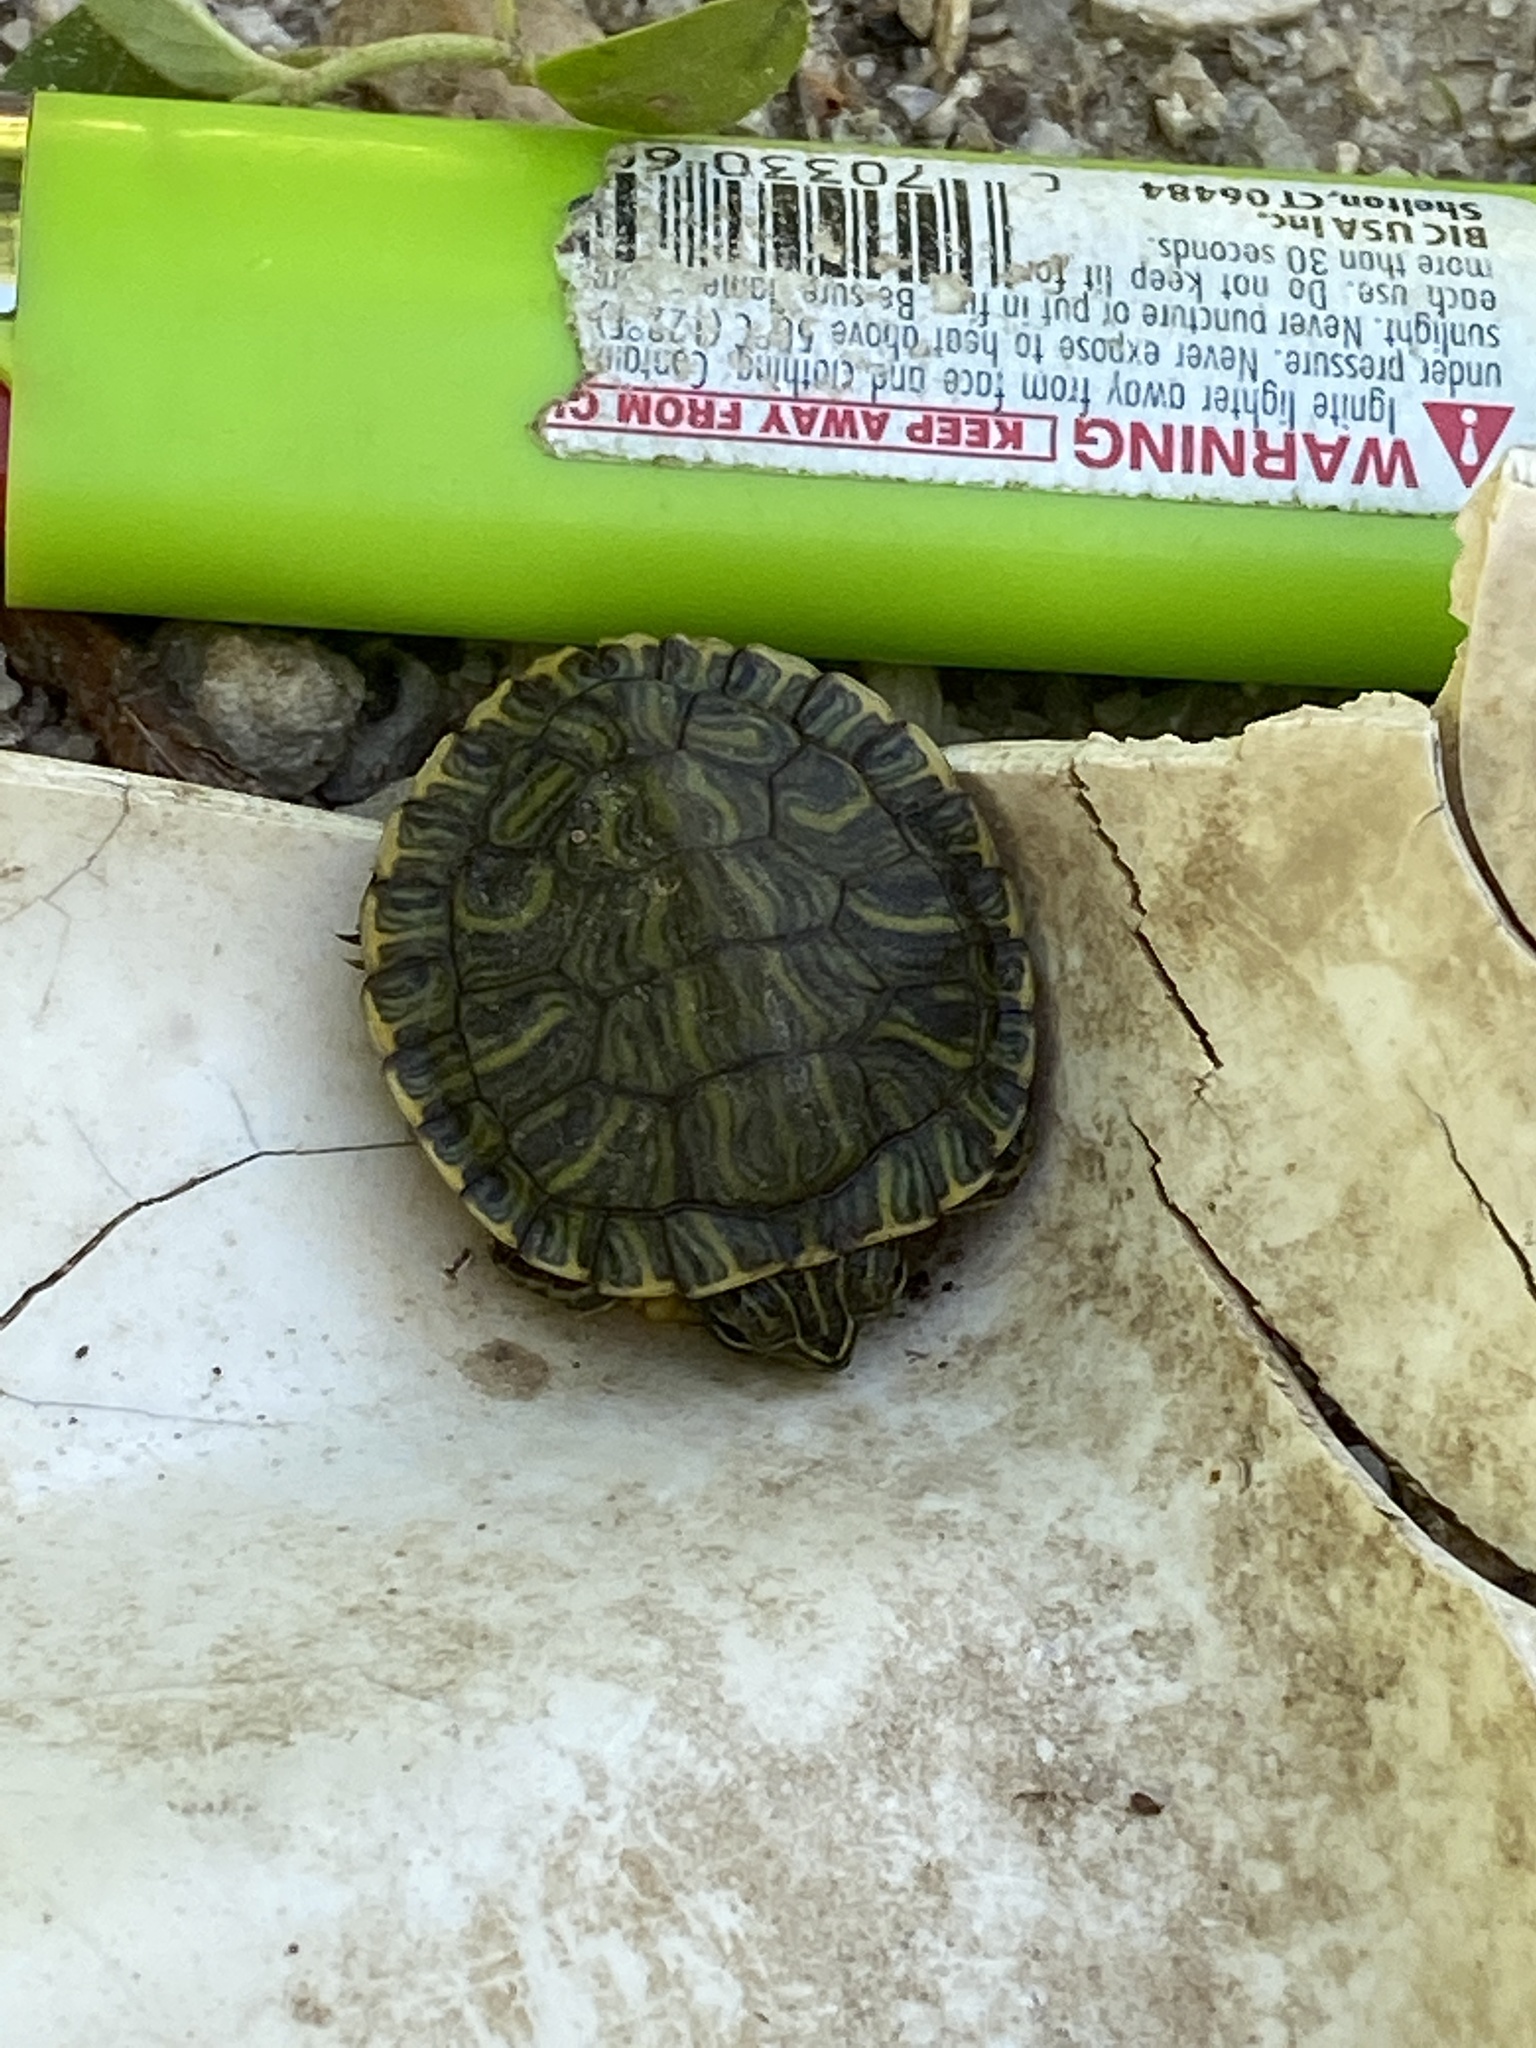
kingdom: Animalia
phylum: Chordata
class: Testudines
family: Emydidae
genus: Trachemys
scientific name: Trachemys scripta
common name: Slider
